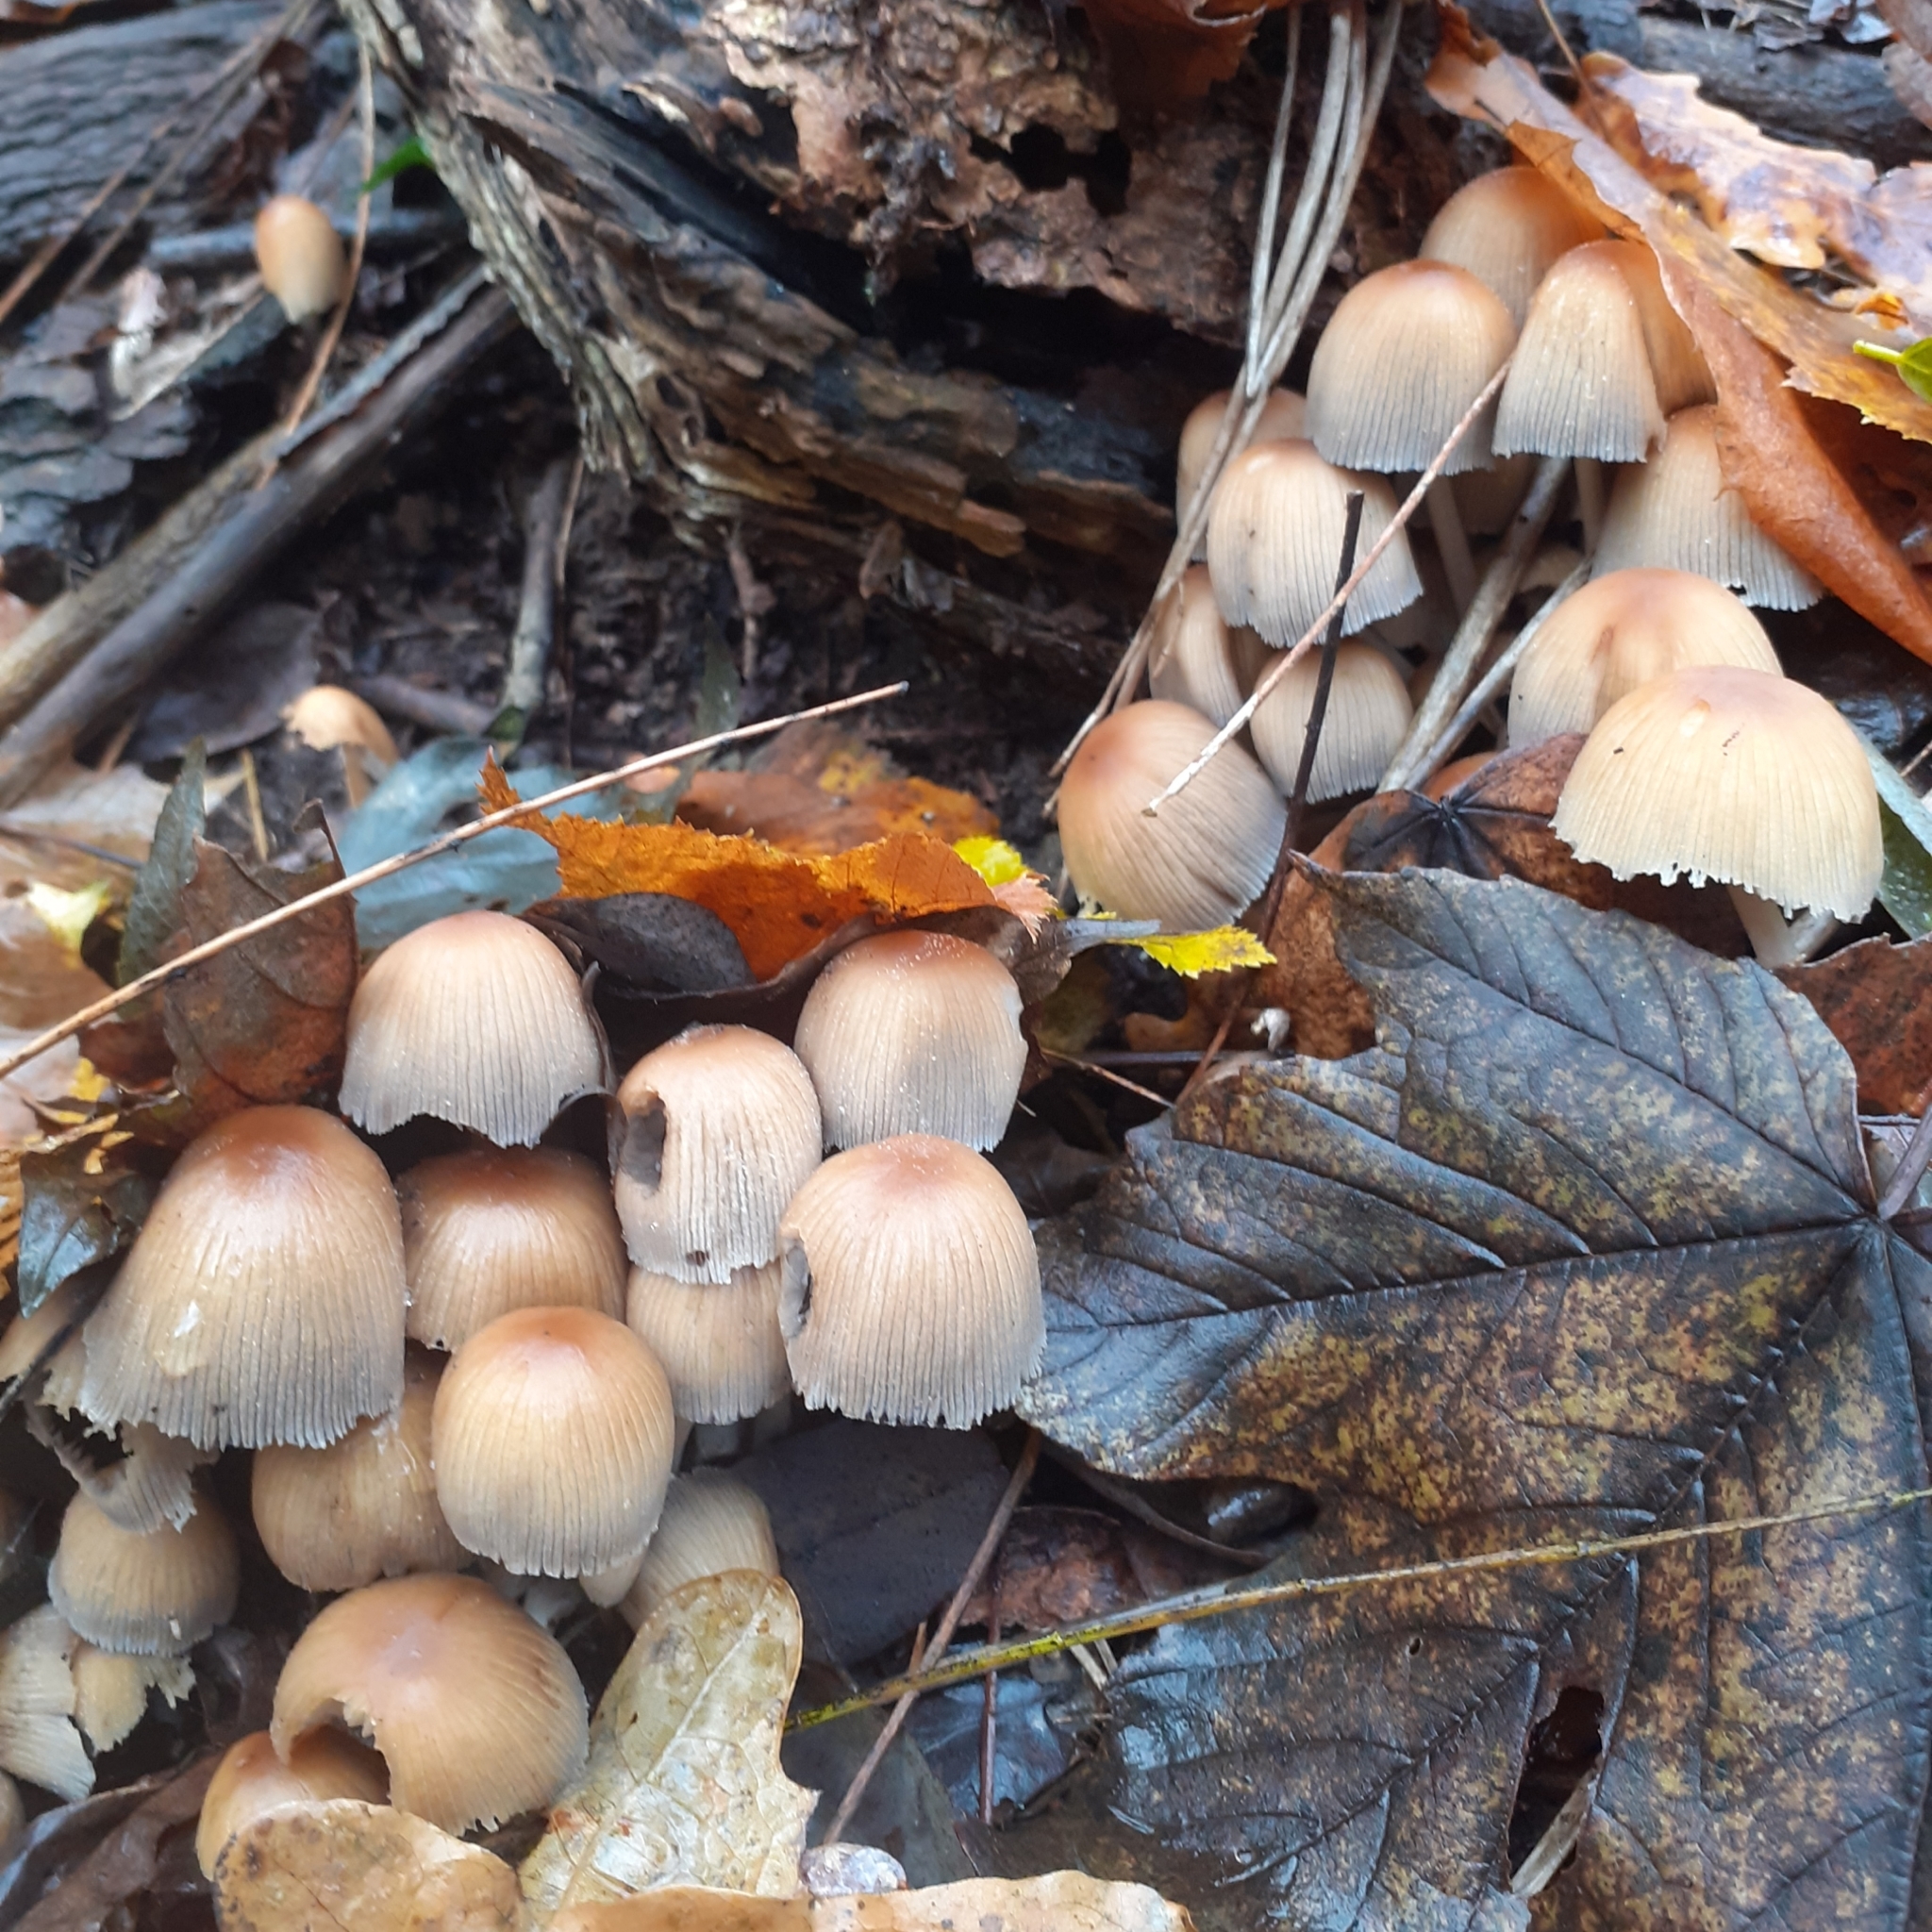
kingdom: Fungi
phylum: Basidiomycota
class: Agaricomycetes
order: Agaricales
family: Psathyrellaceae
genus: Coprinellus
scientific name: Coprinellus micaceus
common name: Glistening ink-cap
